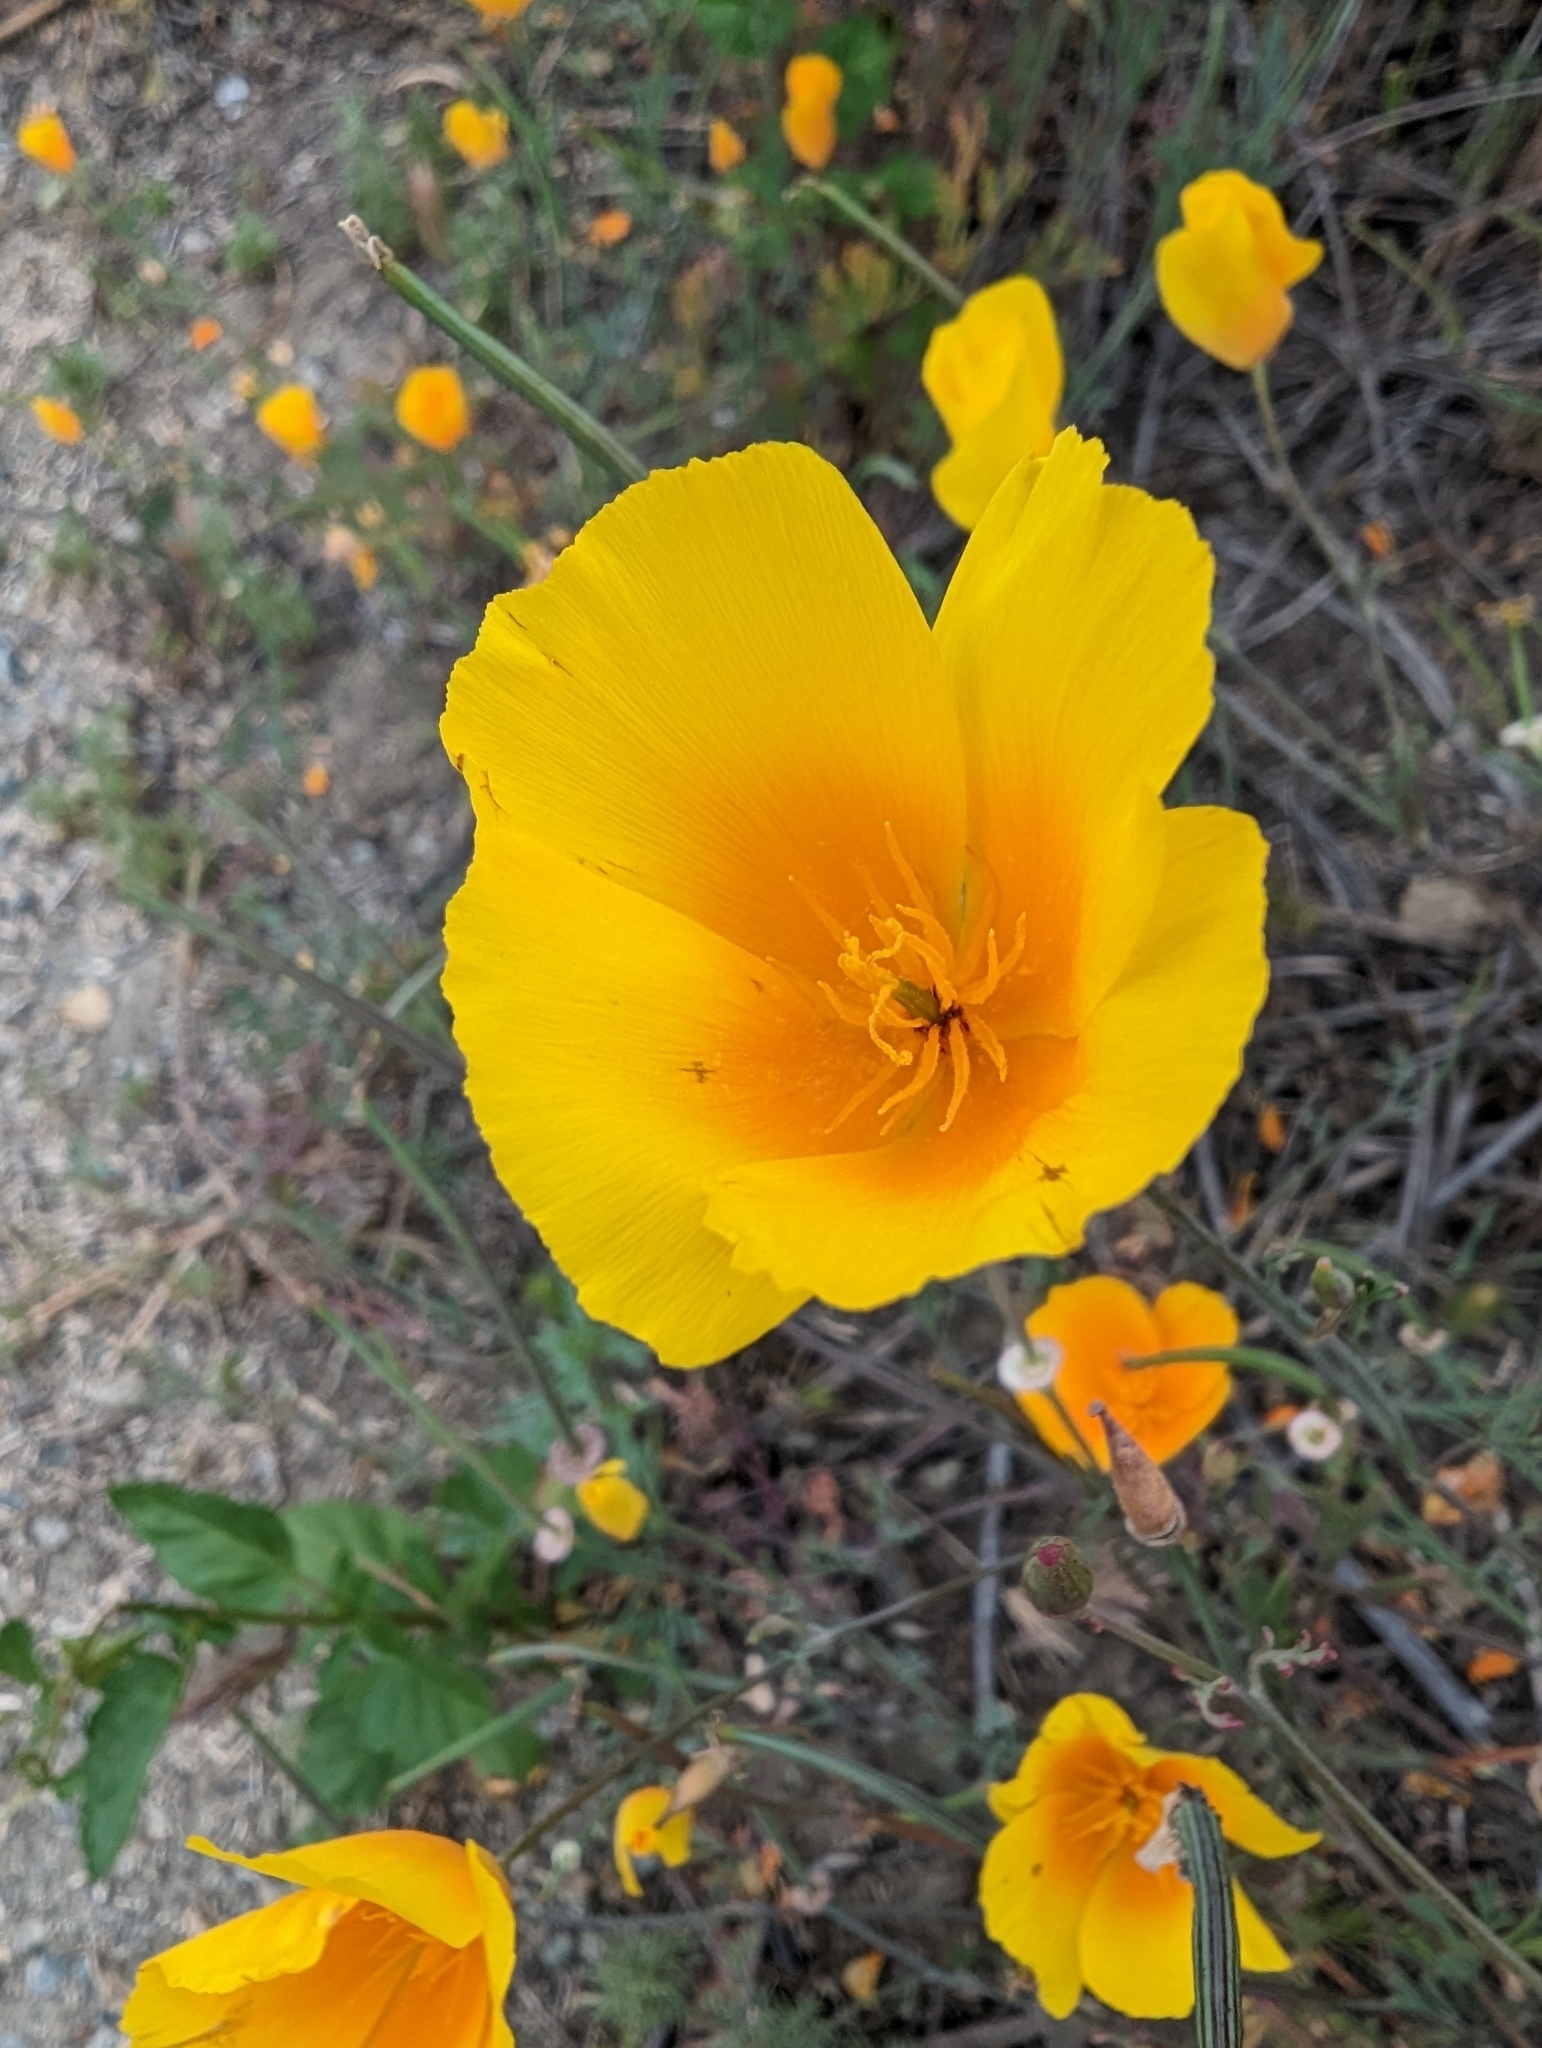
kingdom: Plantae
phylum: Tracheophyta
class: Magnoliopsida
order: Ranunculales
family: Papaveraceae
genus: Eschscholzia
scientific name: Eschscholzia californica
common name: California poppy
